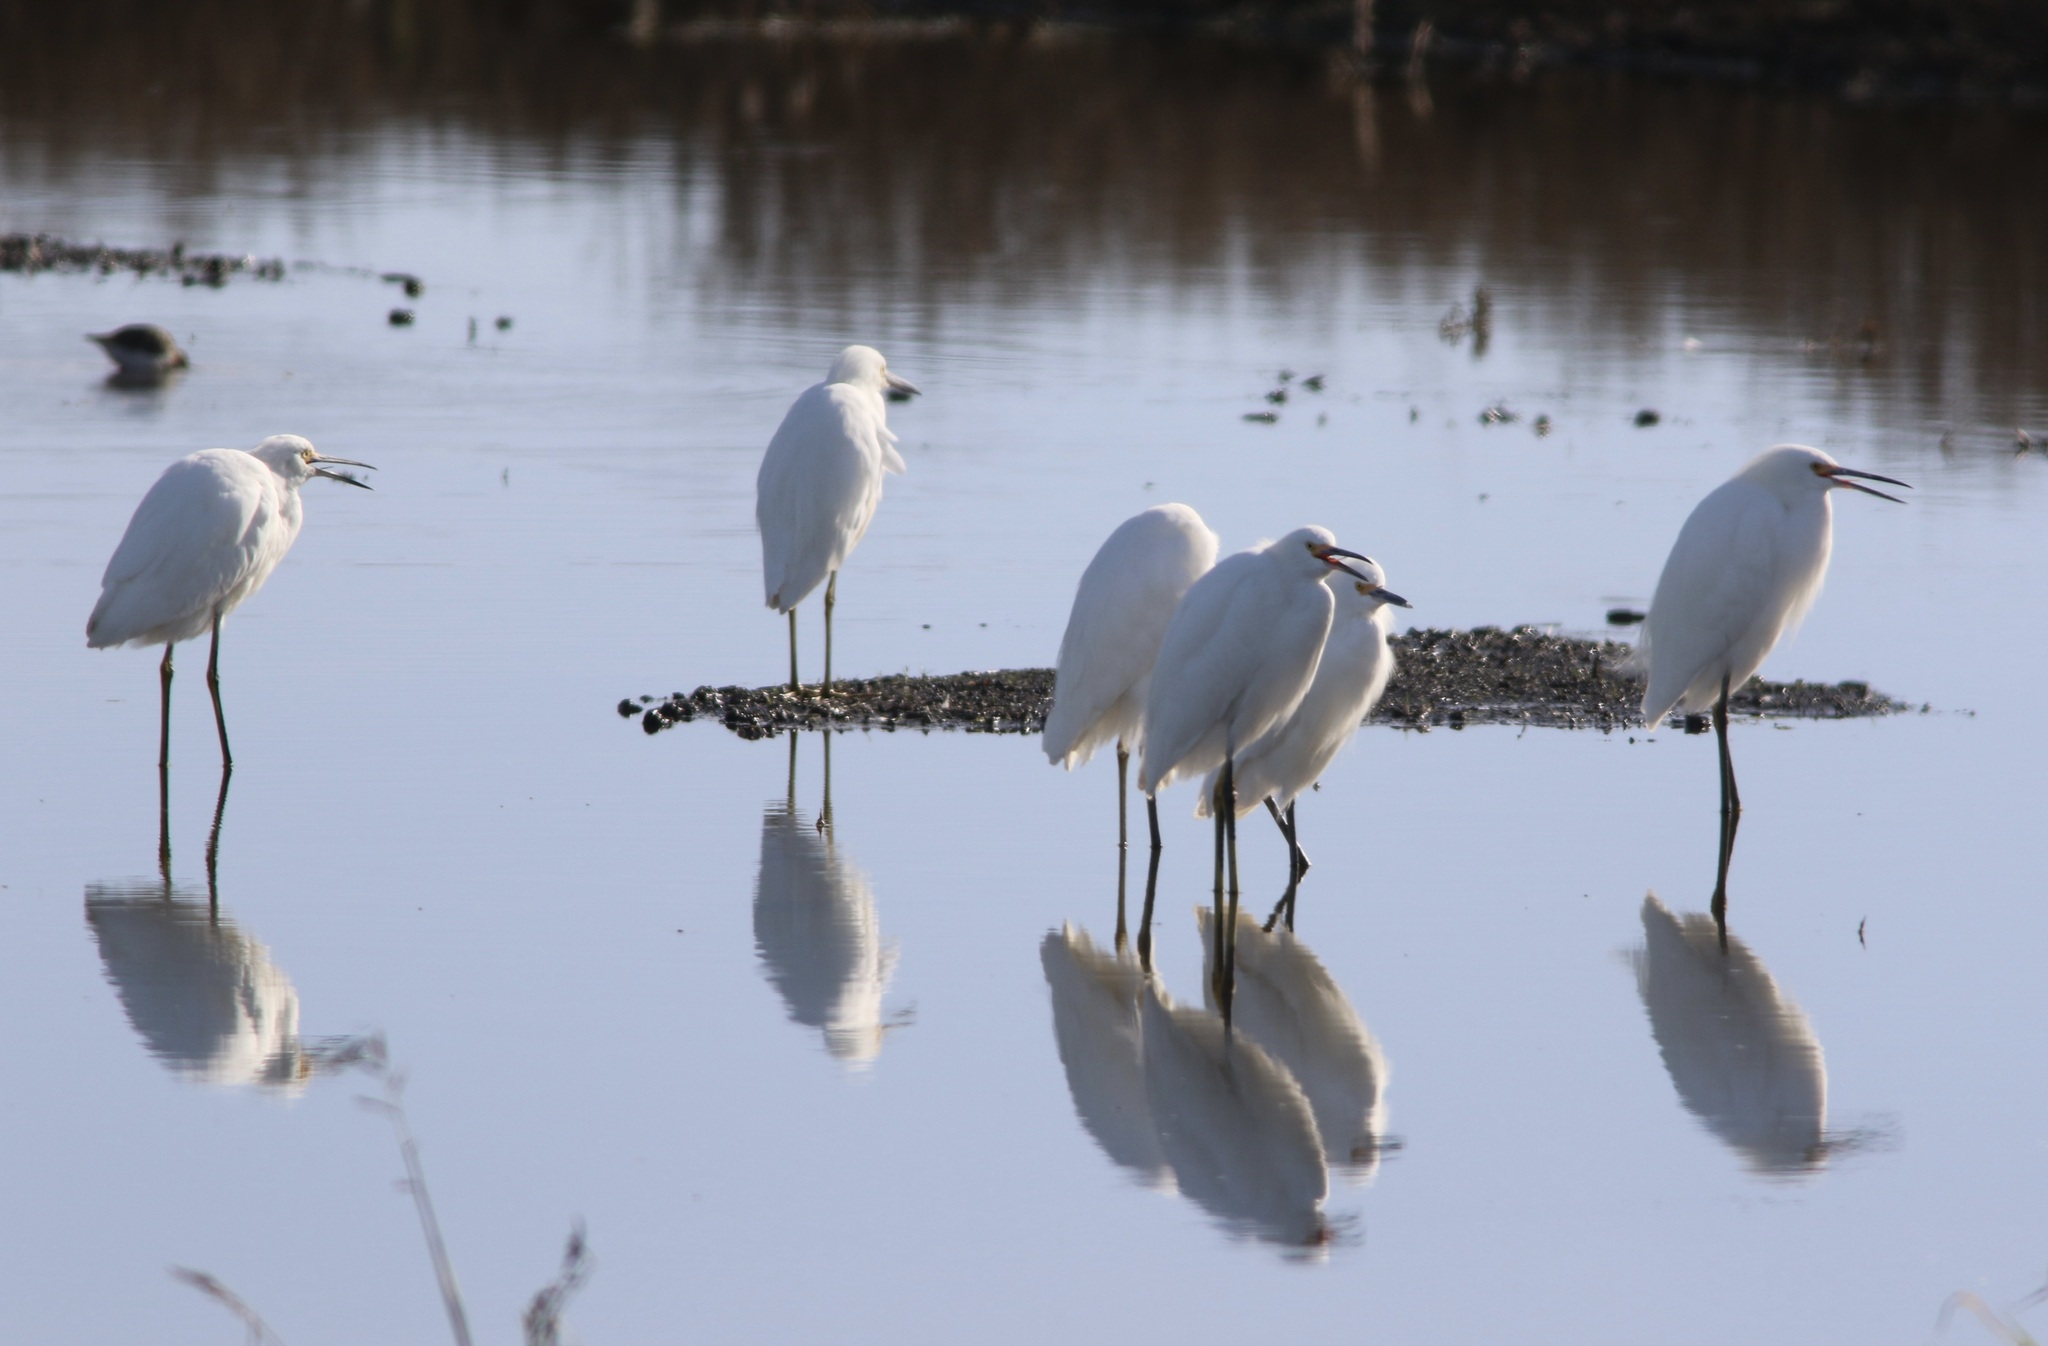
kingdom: Animalia
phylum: Chordata
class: Aves
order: Pelecaniformes
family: Ardeidae
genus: Egretta
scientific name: Egretta thula
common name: Snowy egret
